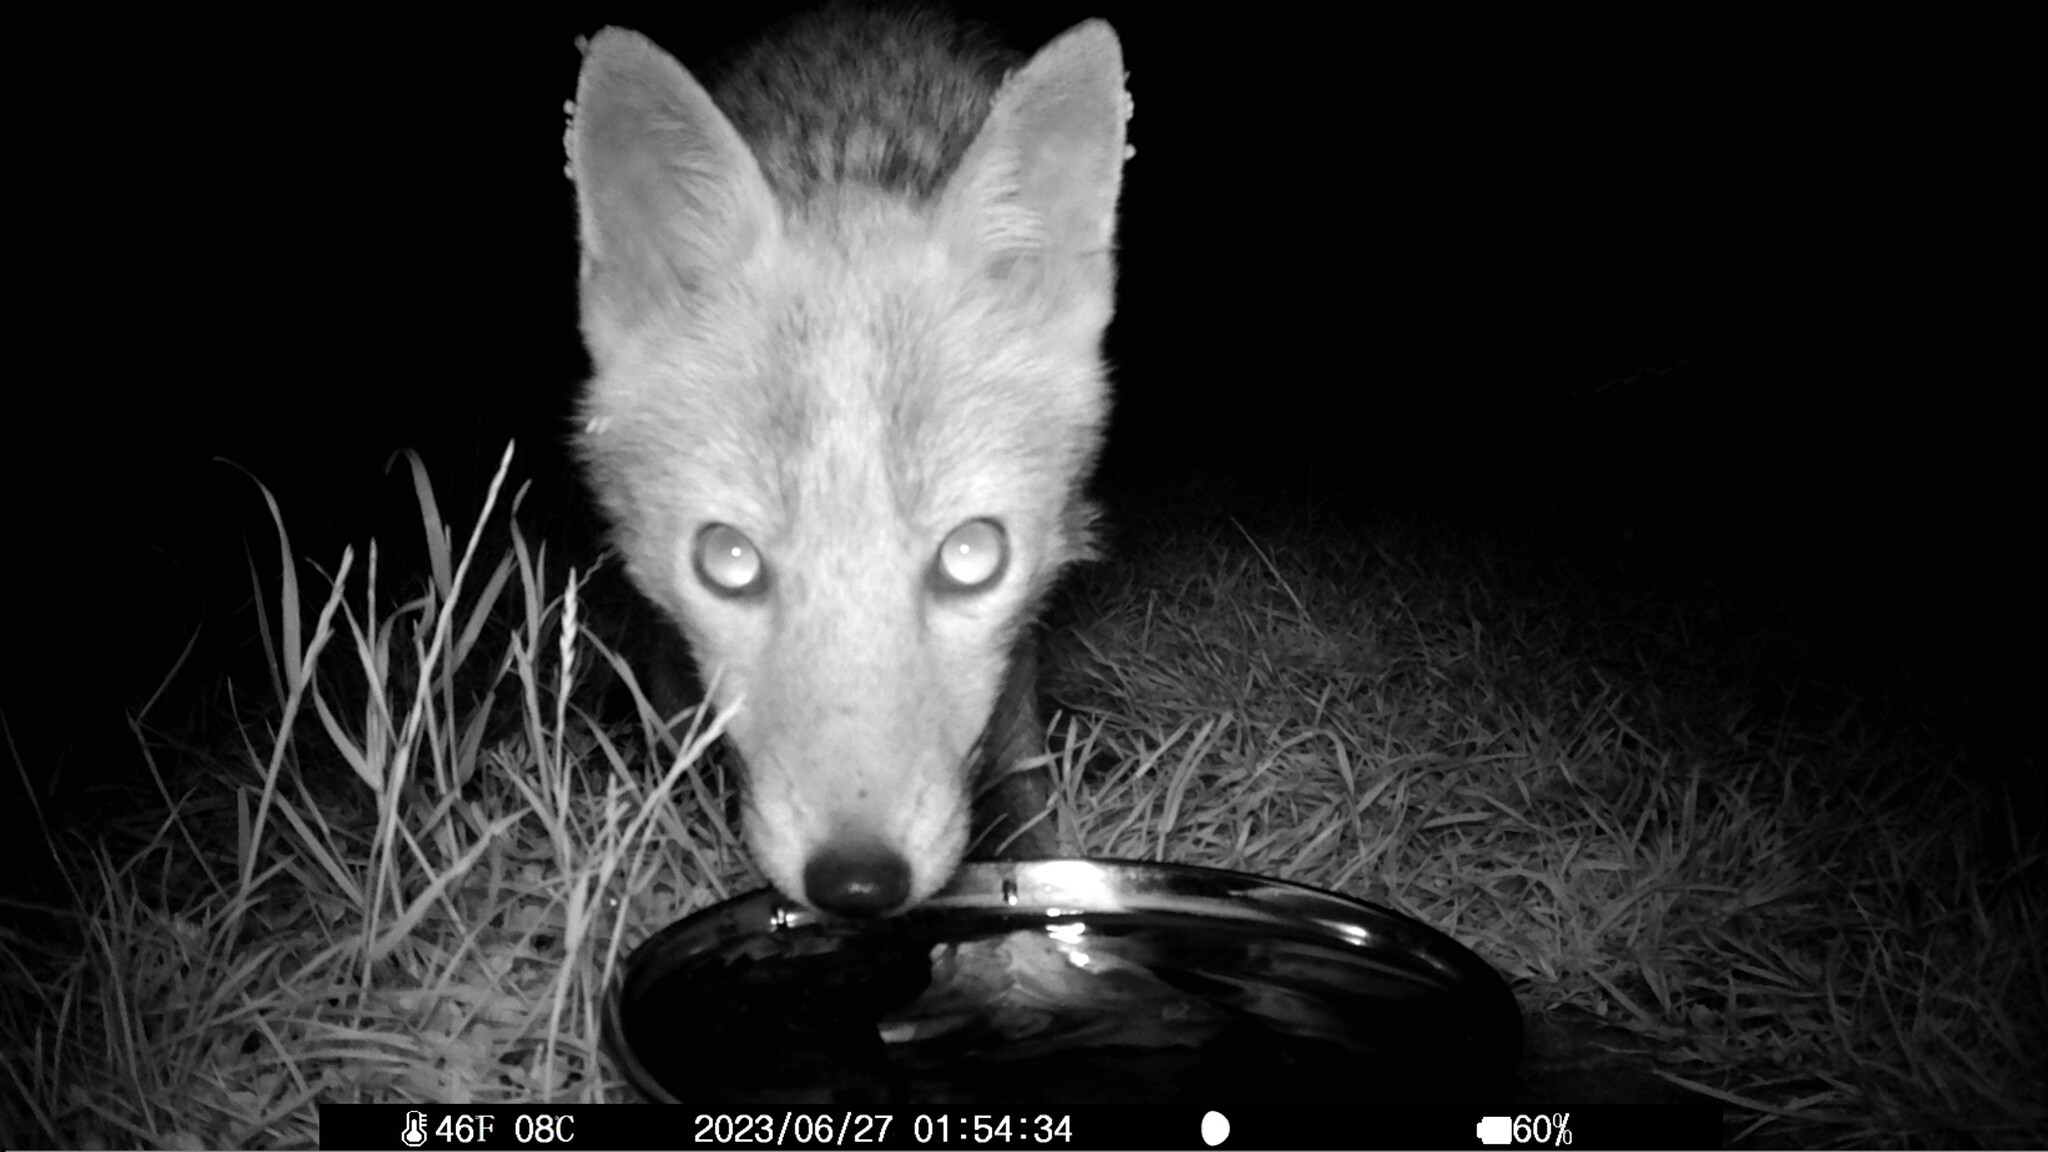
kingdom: Animalia
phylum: Chordata
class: Mammalia
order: Carnivora
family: Canidae
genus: Vulpes
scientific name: Vulpes vulpes
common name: Red fox
